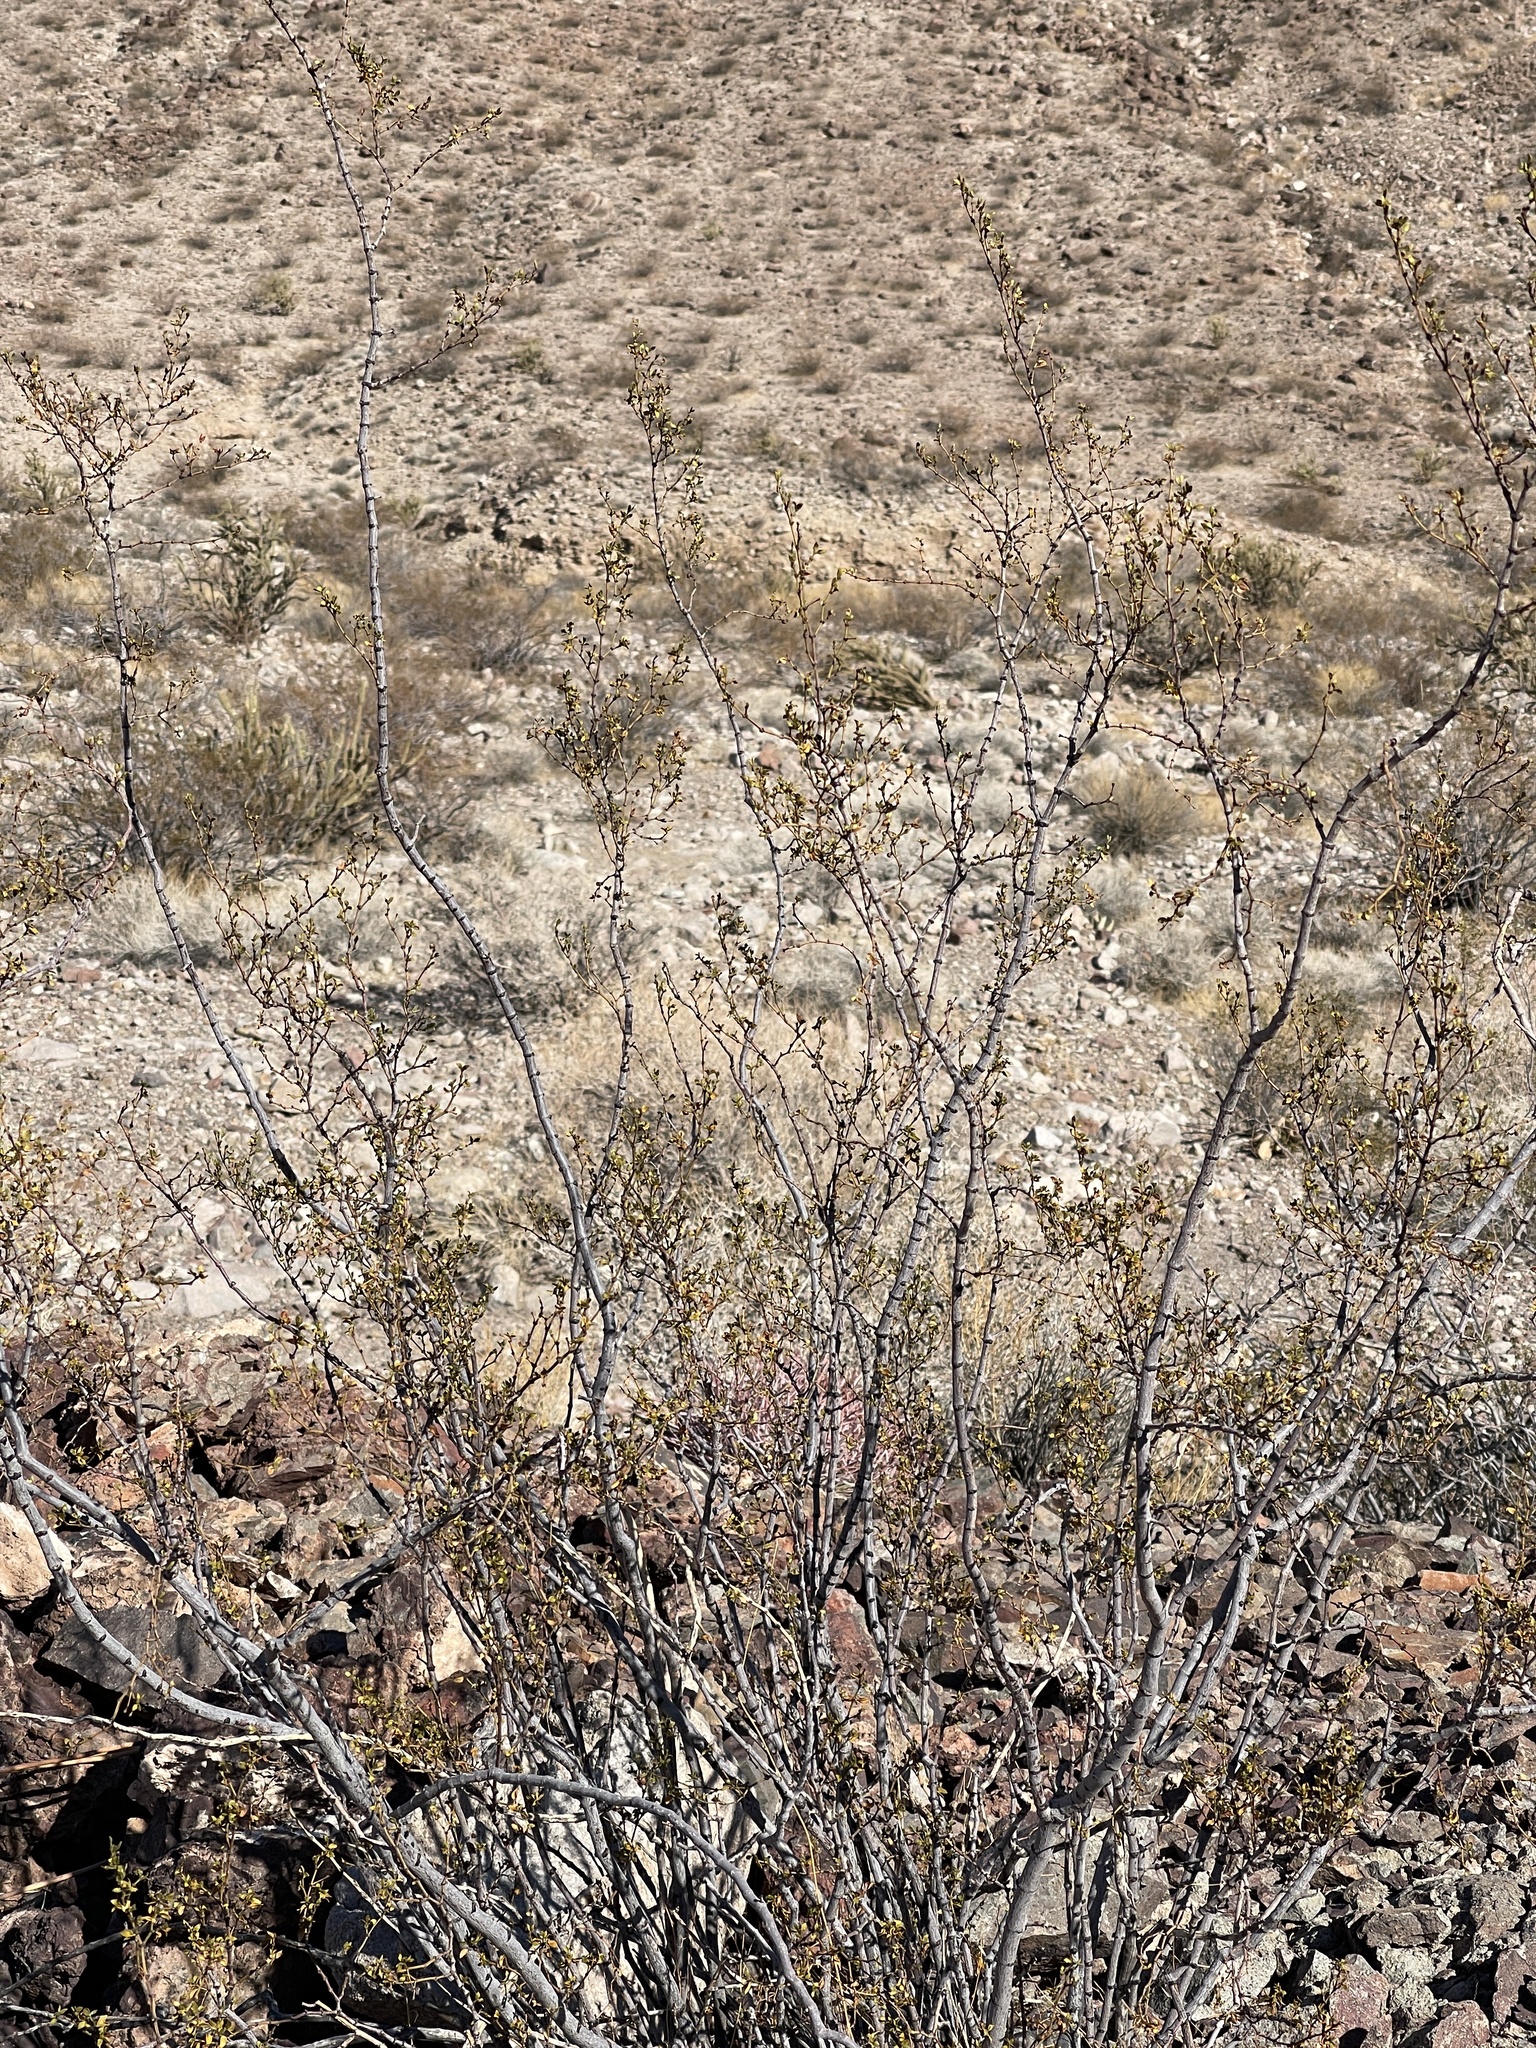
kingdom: Plantae
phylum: Tracheophyta
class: Magnoliopsida
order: Zygophyllales
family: Zygophyllaceae
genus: Larrea
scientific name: Larrea tridentata
